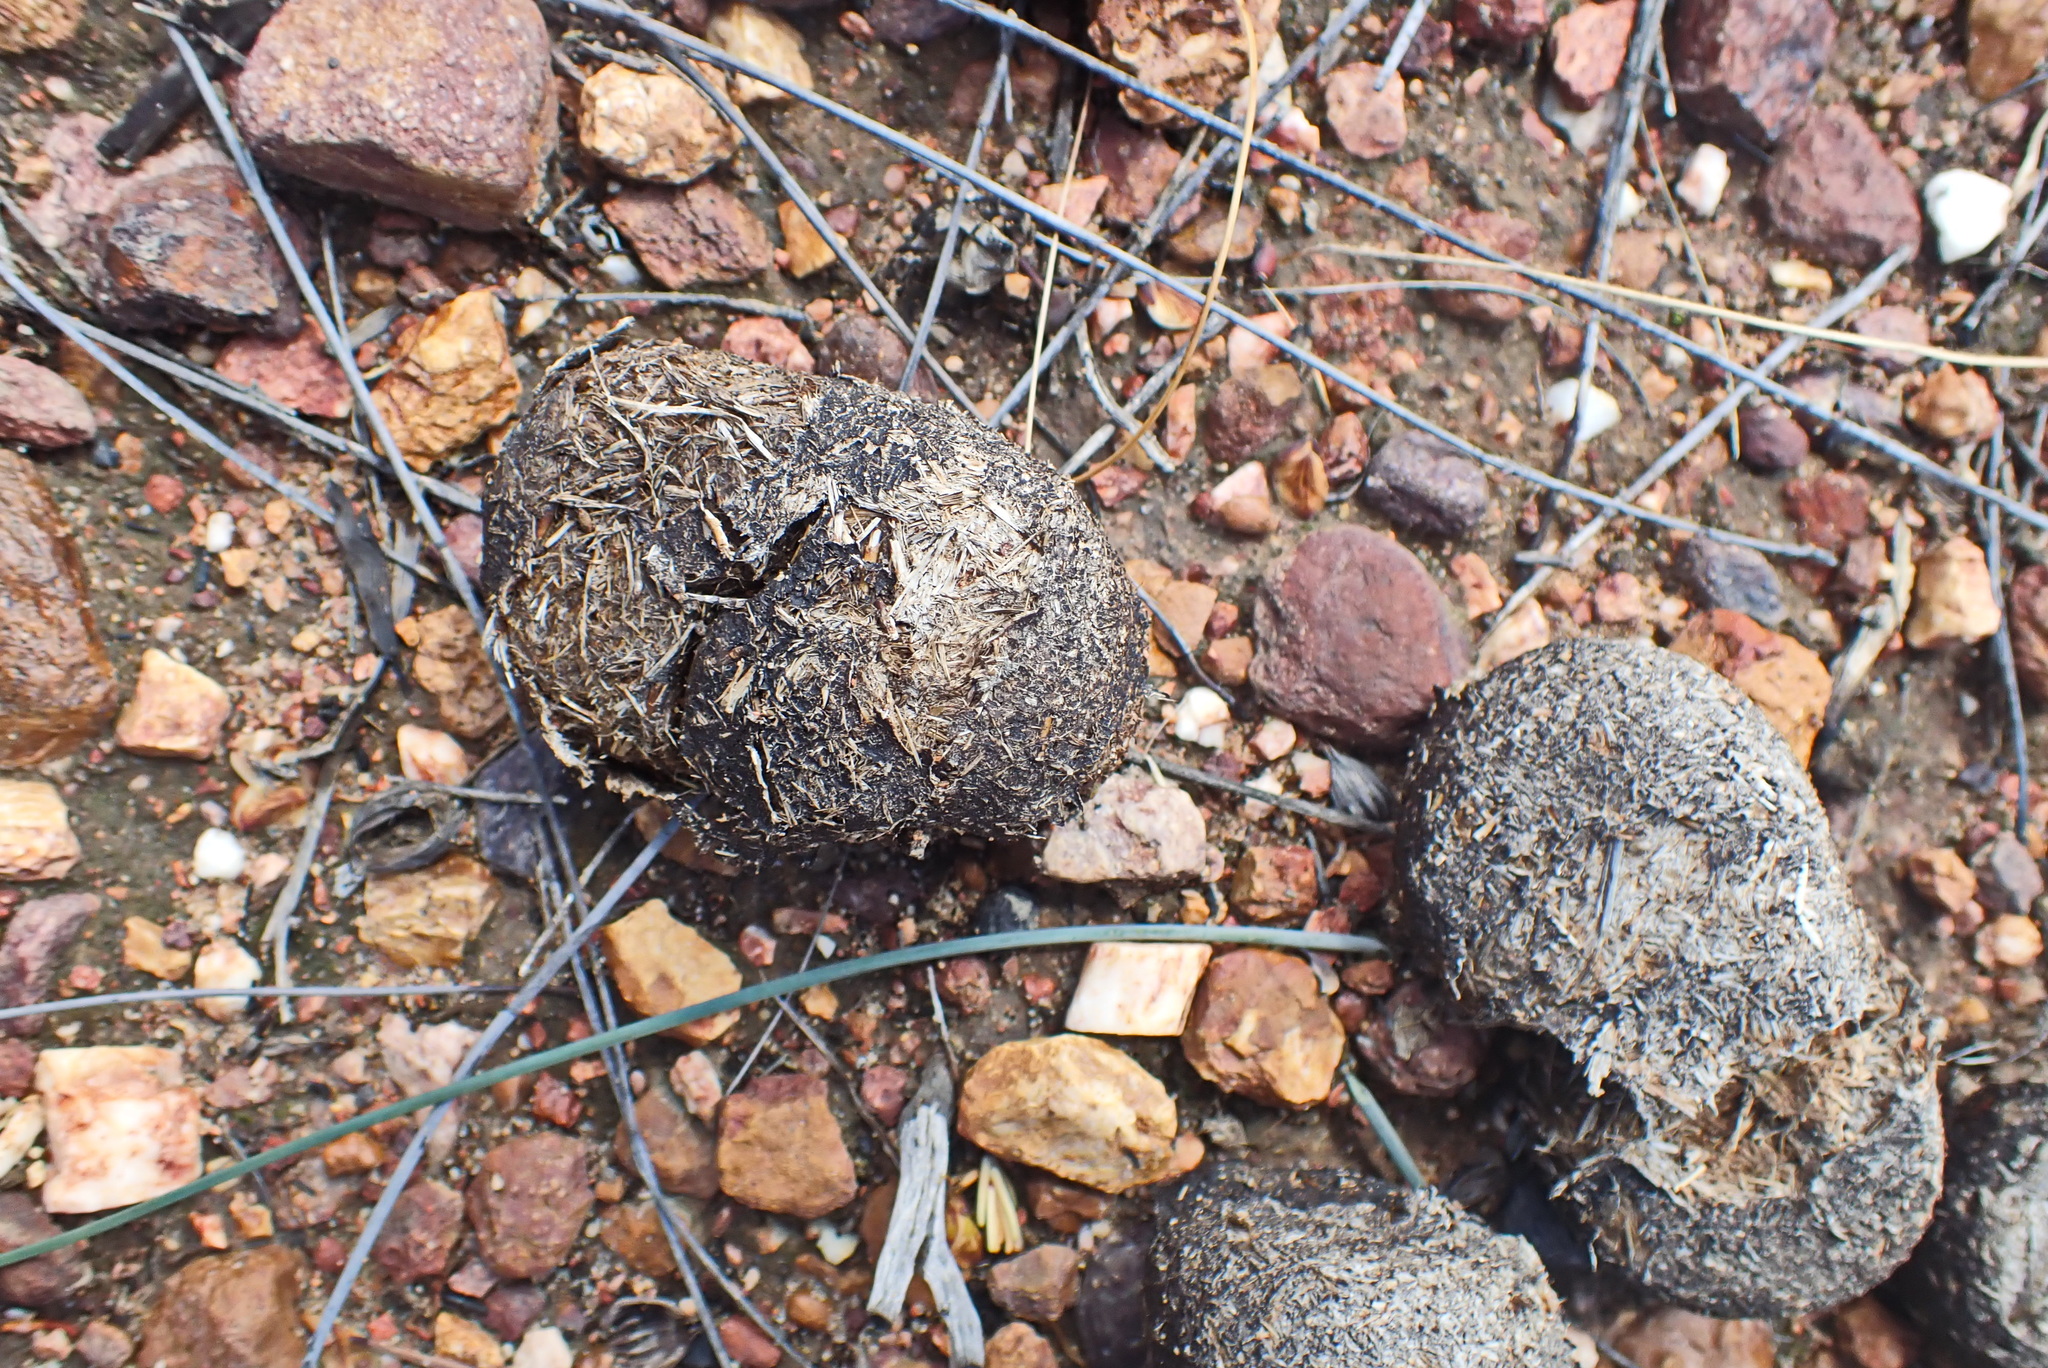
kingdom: Animalia
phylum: Chordata
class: Mammalia
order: Perissodactyla
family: Equidae
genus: Equus
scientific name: Equus quagga
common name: Plains zebra
